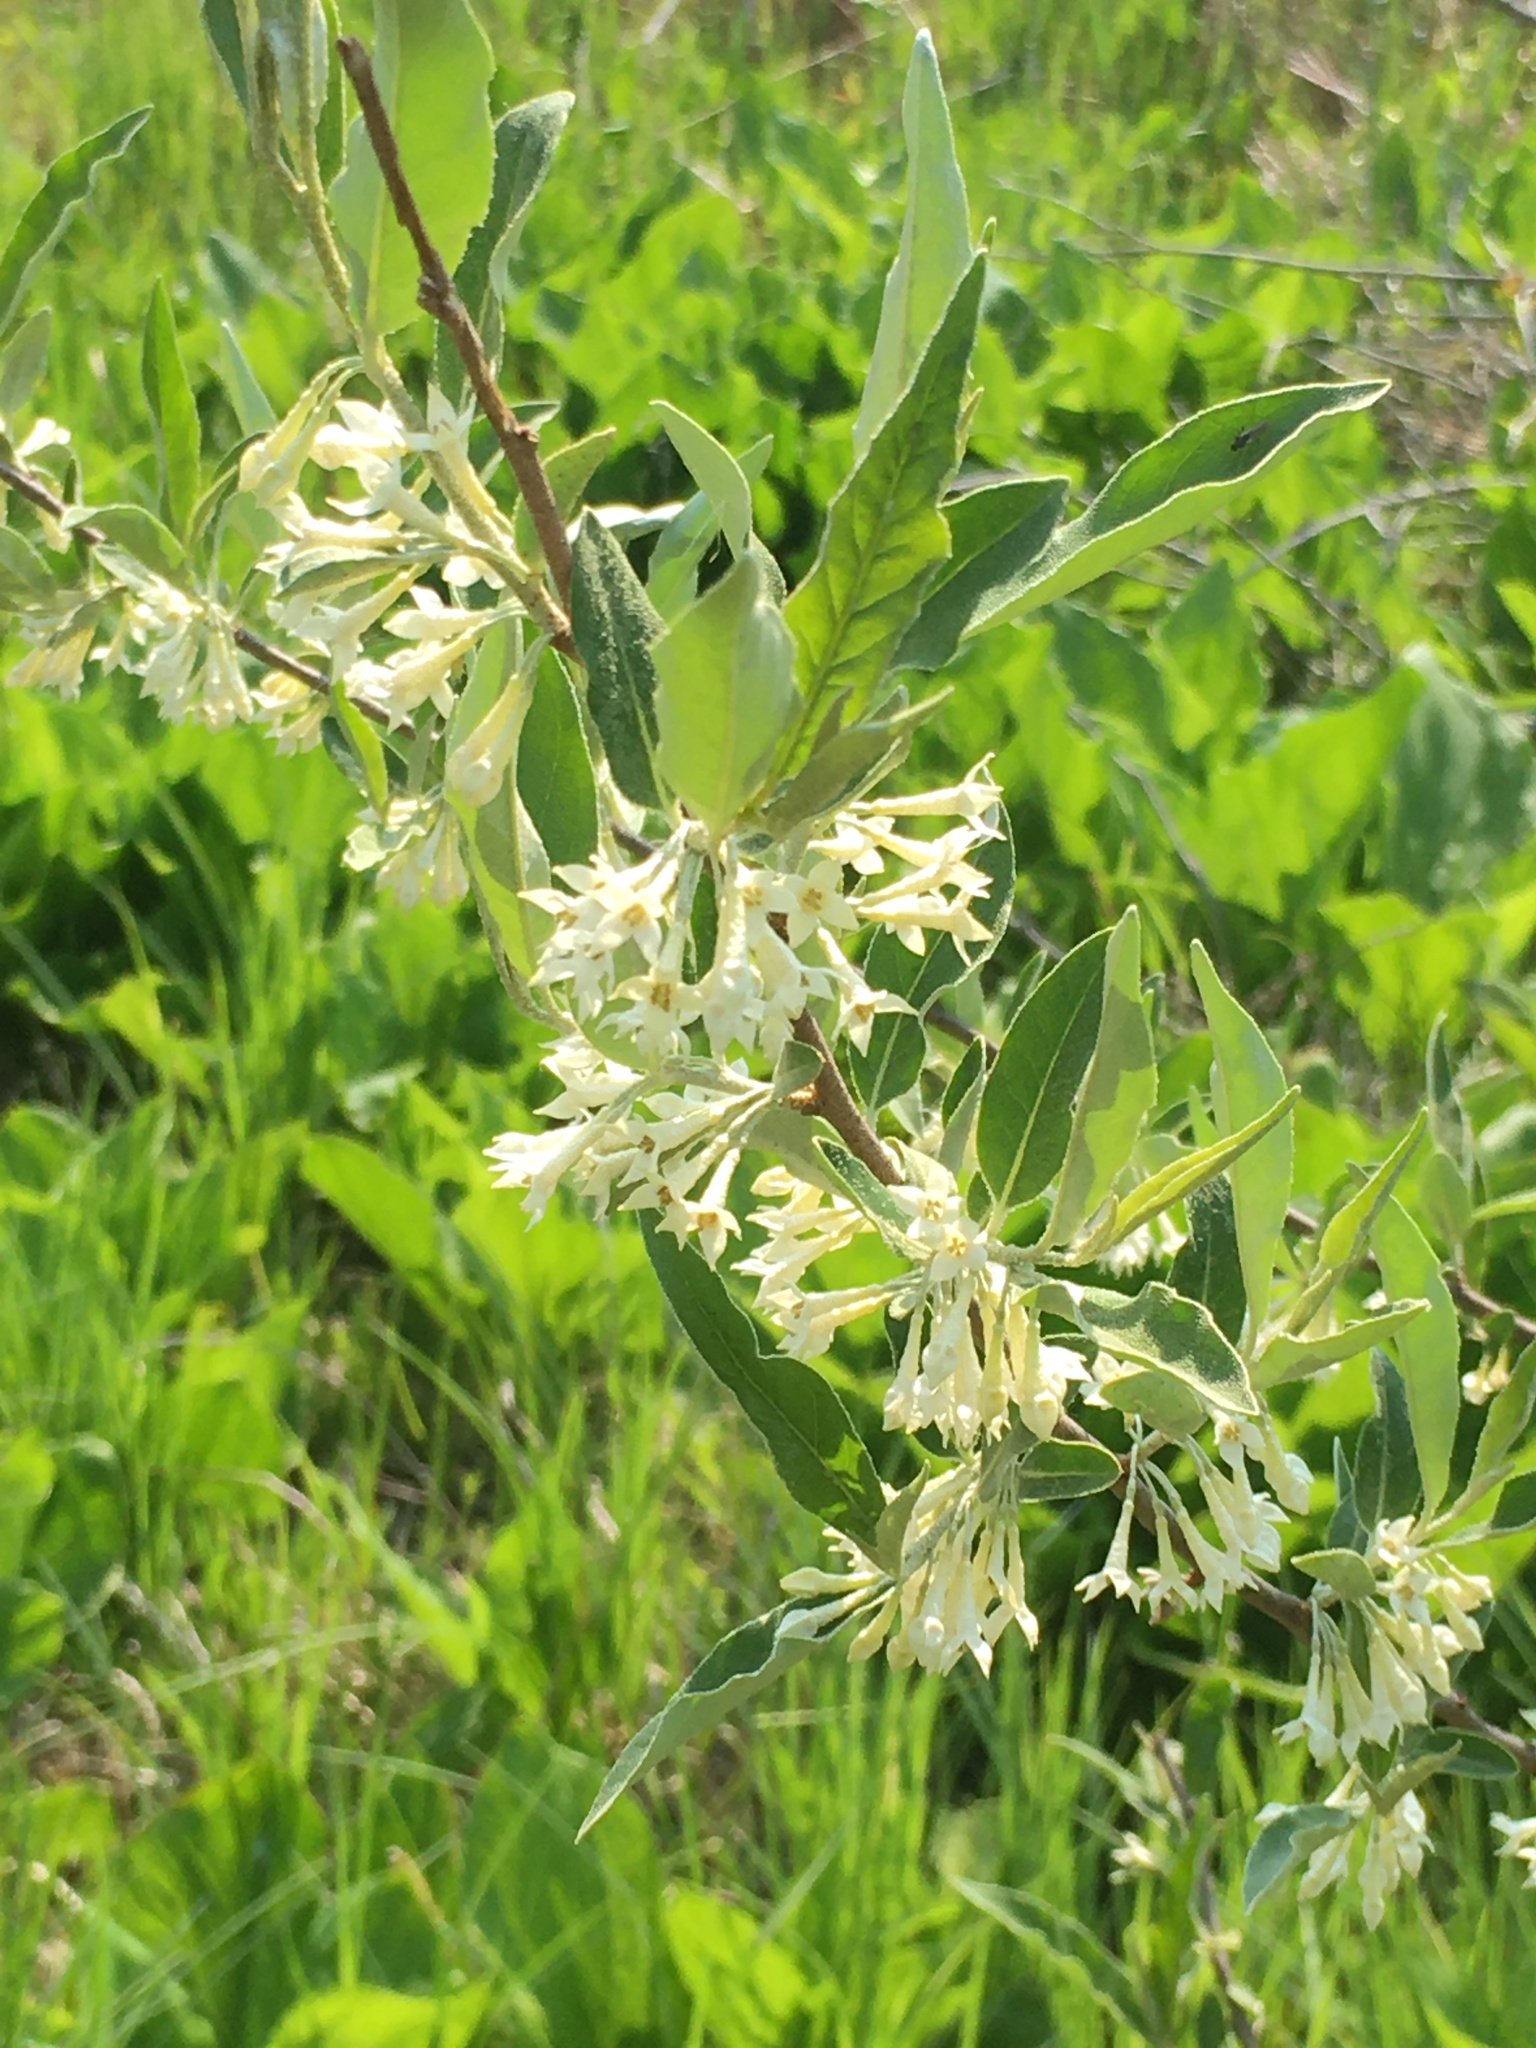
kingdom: Plantae
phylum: Tracheophyta
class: Magnoliopsida
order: Rosales
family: Elaeagnaceae
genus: Elaeagnus
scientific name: Elaeagnus umbellata
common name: Autumn olive
